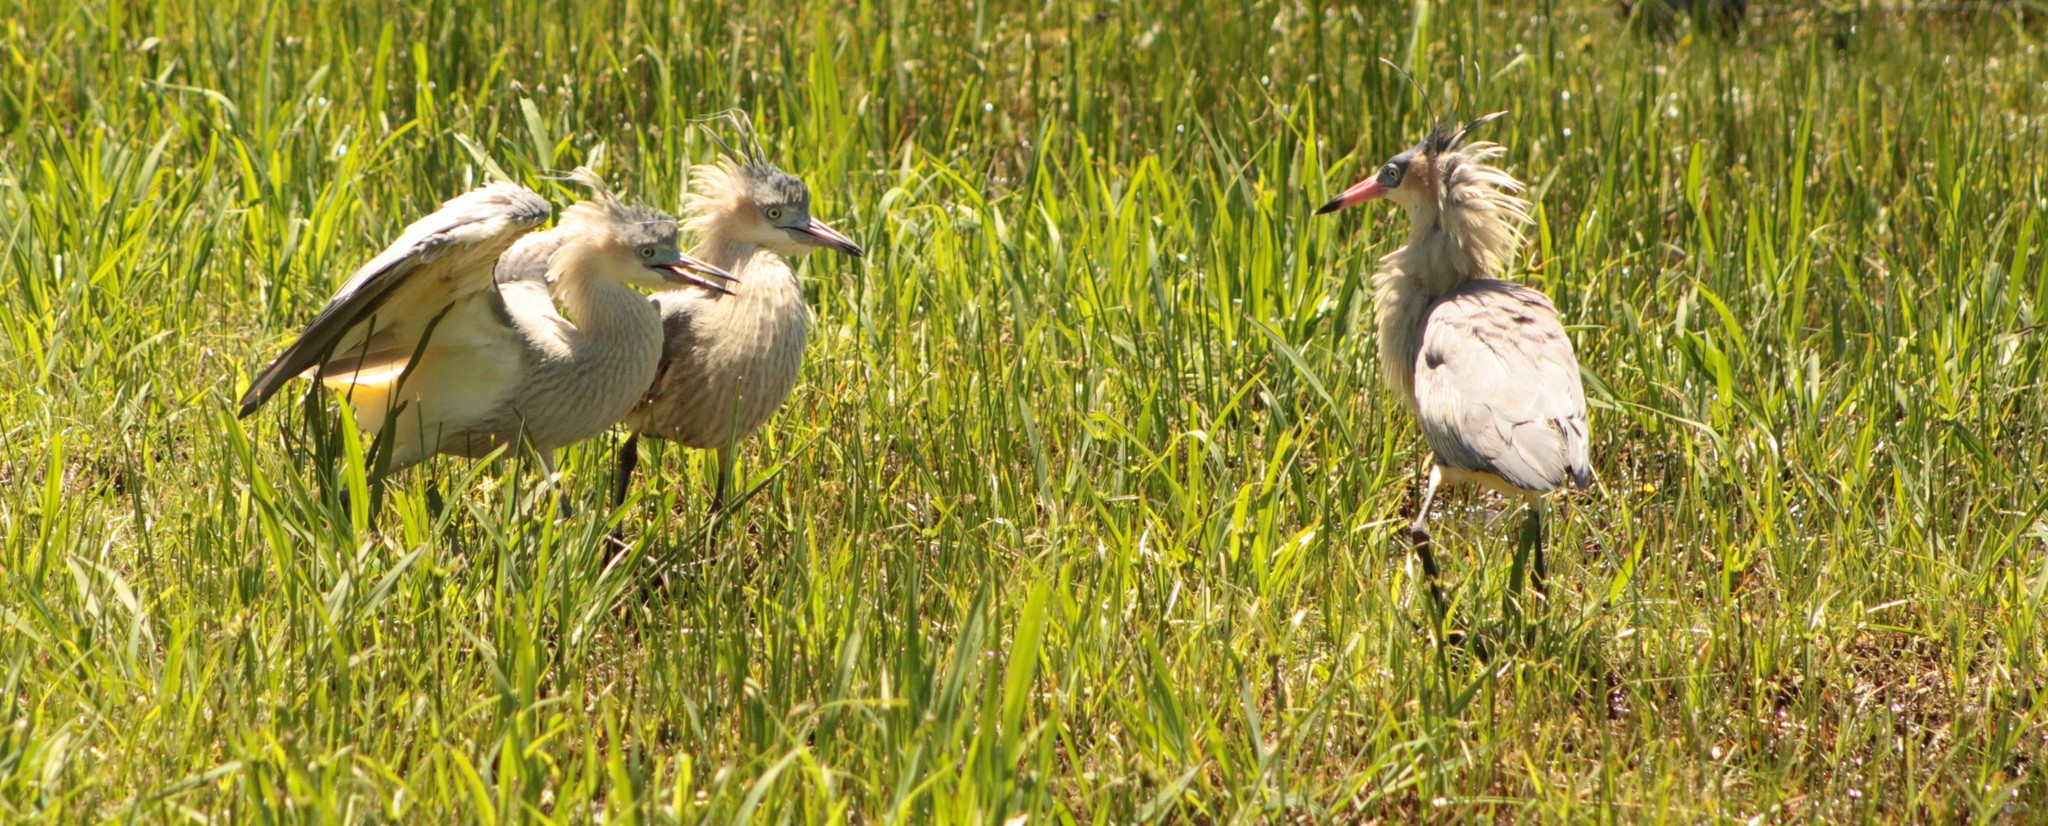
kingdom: Animalia
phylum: Chordata
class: Aves
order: Pelecaniformes
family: Ardeidae
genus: Syrigma
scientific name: Syrigma sibilatrix
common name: Whistling heron
